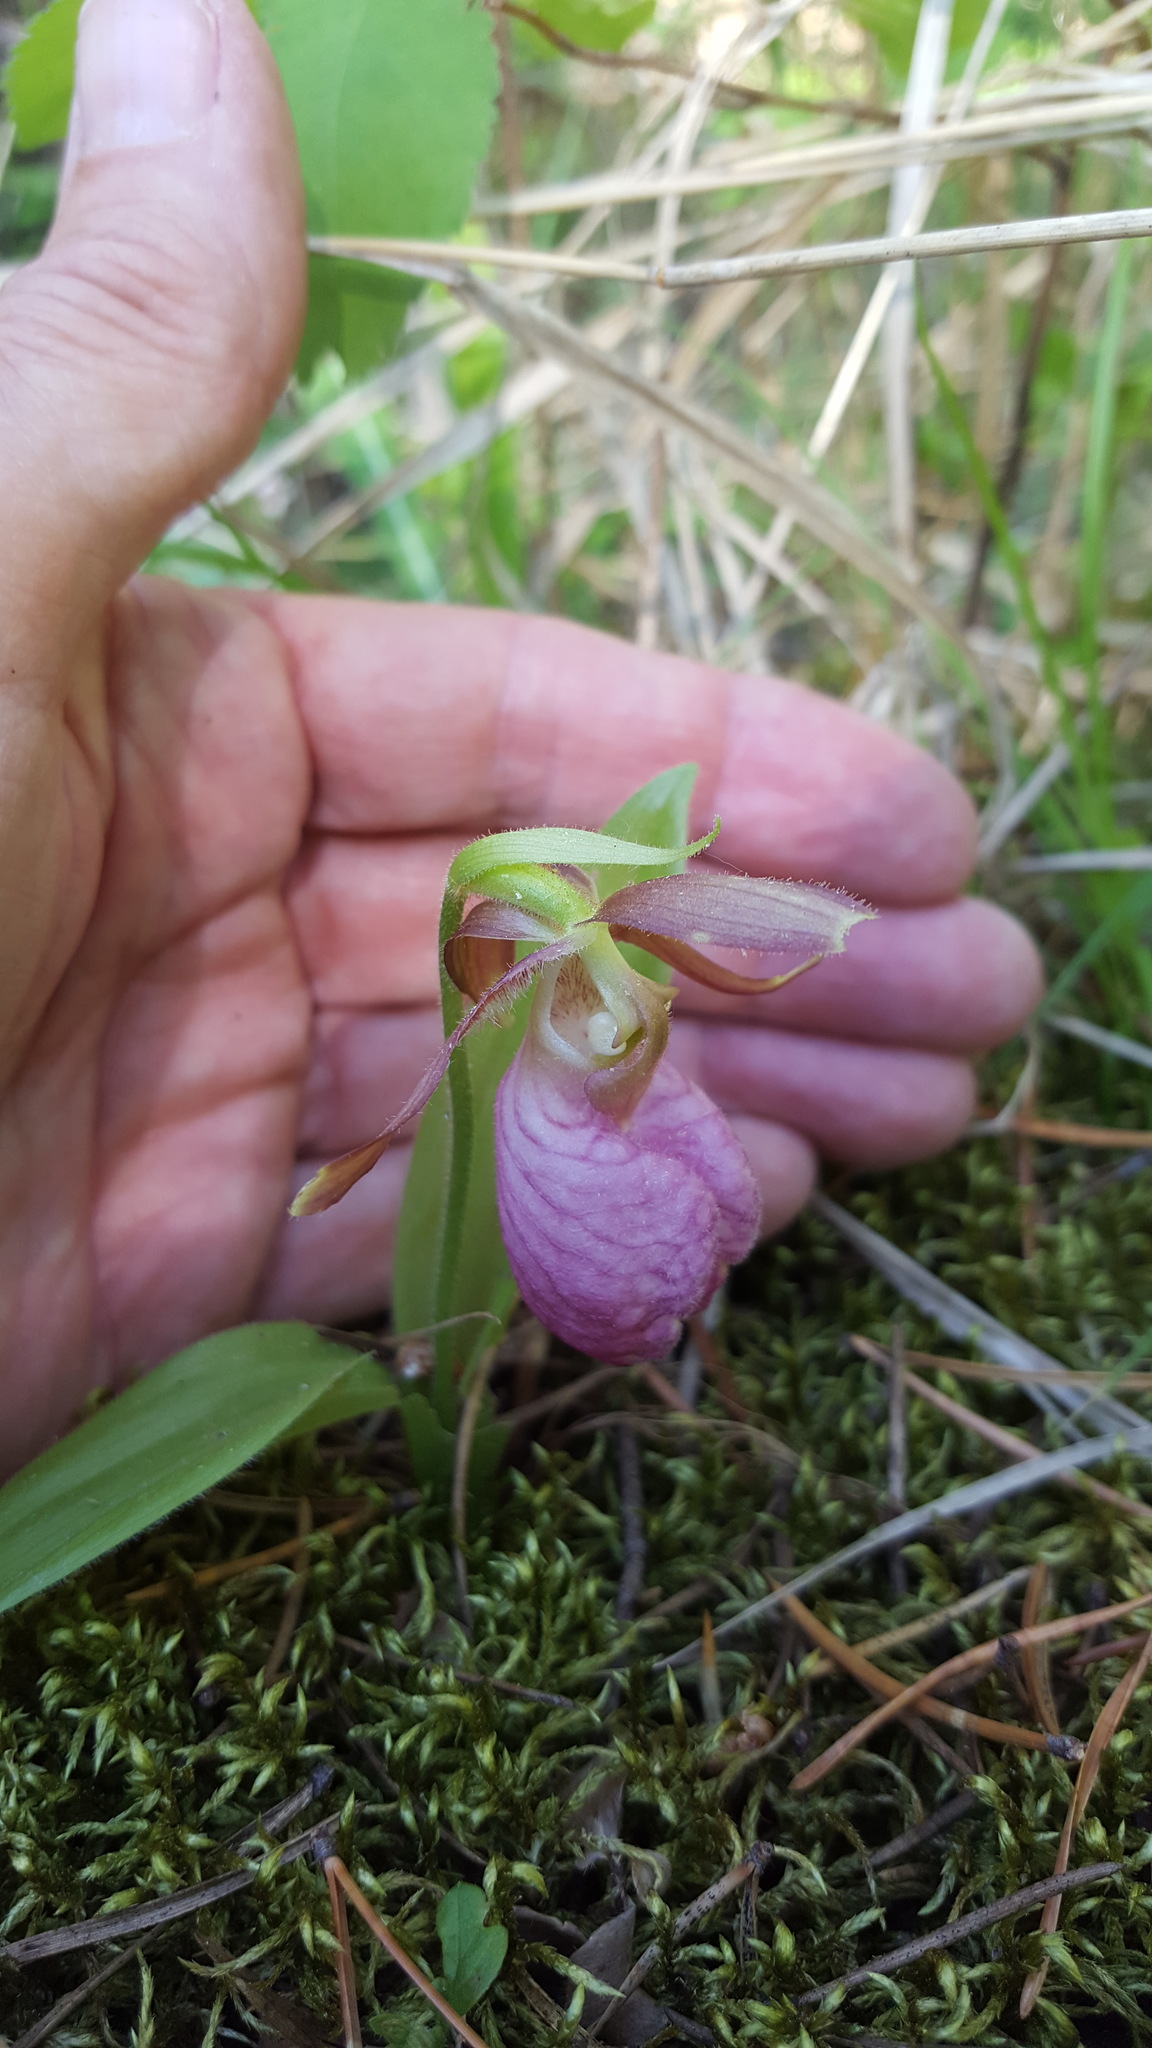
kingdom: Plantae
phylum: Tracheophyta
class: Liliopsida
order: Asparagales
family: Orchidaceae
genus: Cypripedium
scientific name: Cypripedium acaule
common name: Pink lady's-slipper
